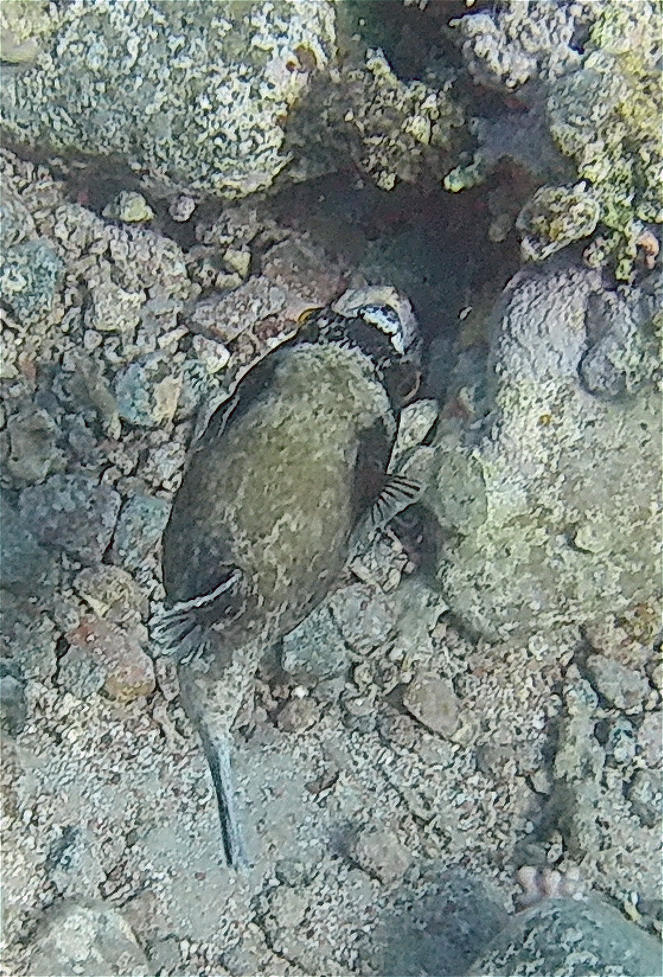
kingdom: Animalia
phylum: Chordata
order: Tetraodontiformes
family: Tetraodontidae
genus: Arothron
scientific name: Arothron diadematus
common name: Masked puffer
